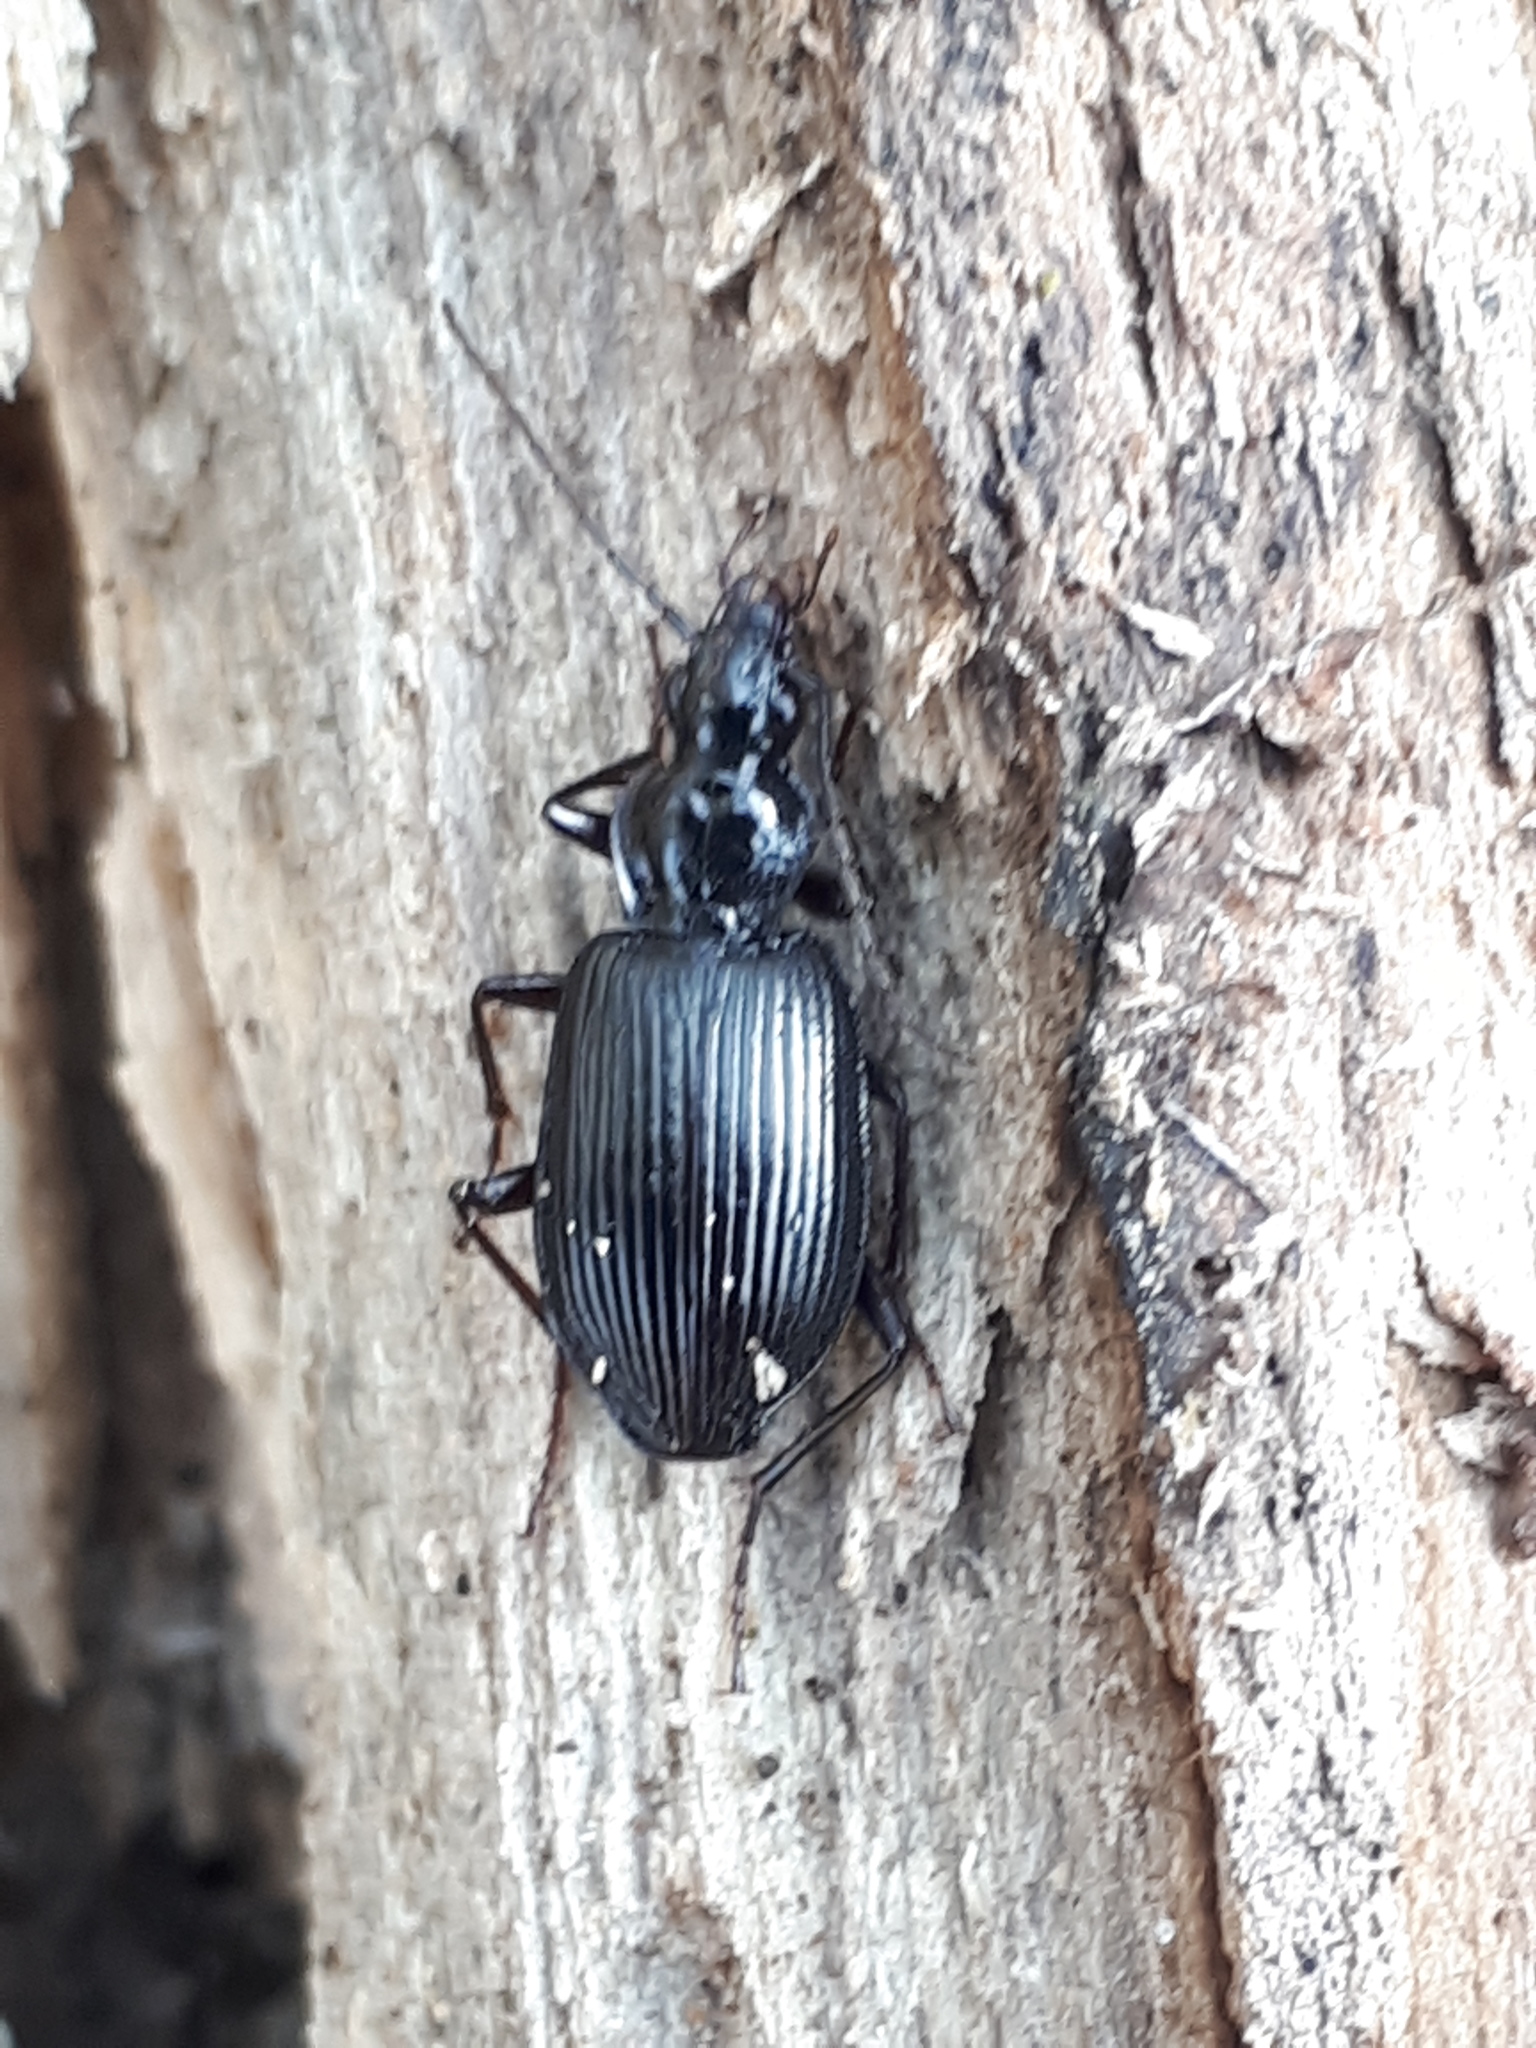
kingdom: Animalia
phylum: Arthropoda
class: Insecta
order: Coleoptera
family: Carabidae
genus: Platynus
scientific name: Platynus assimilis
